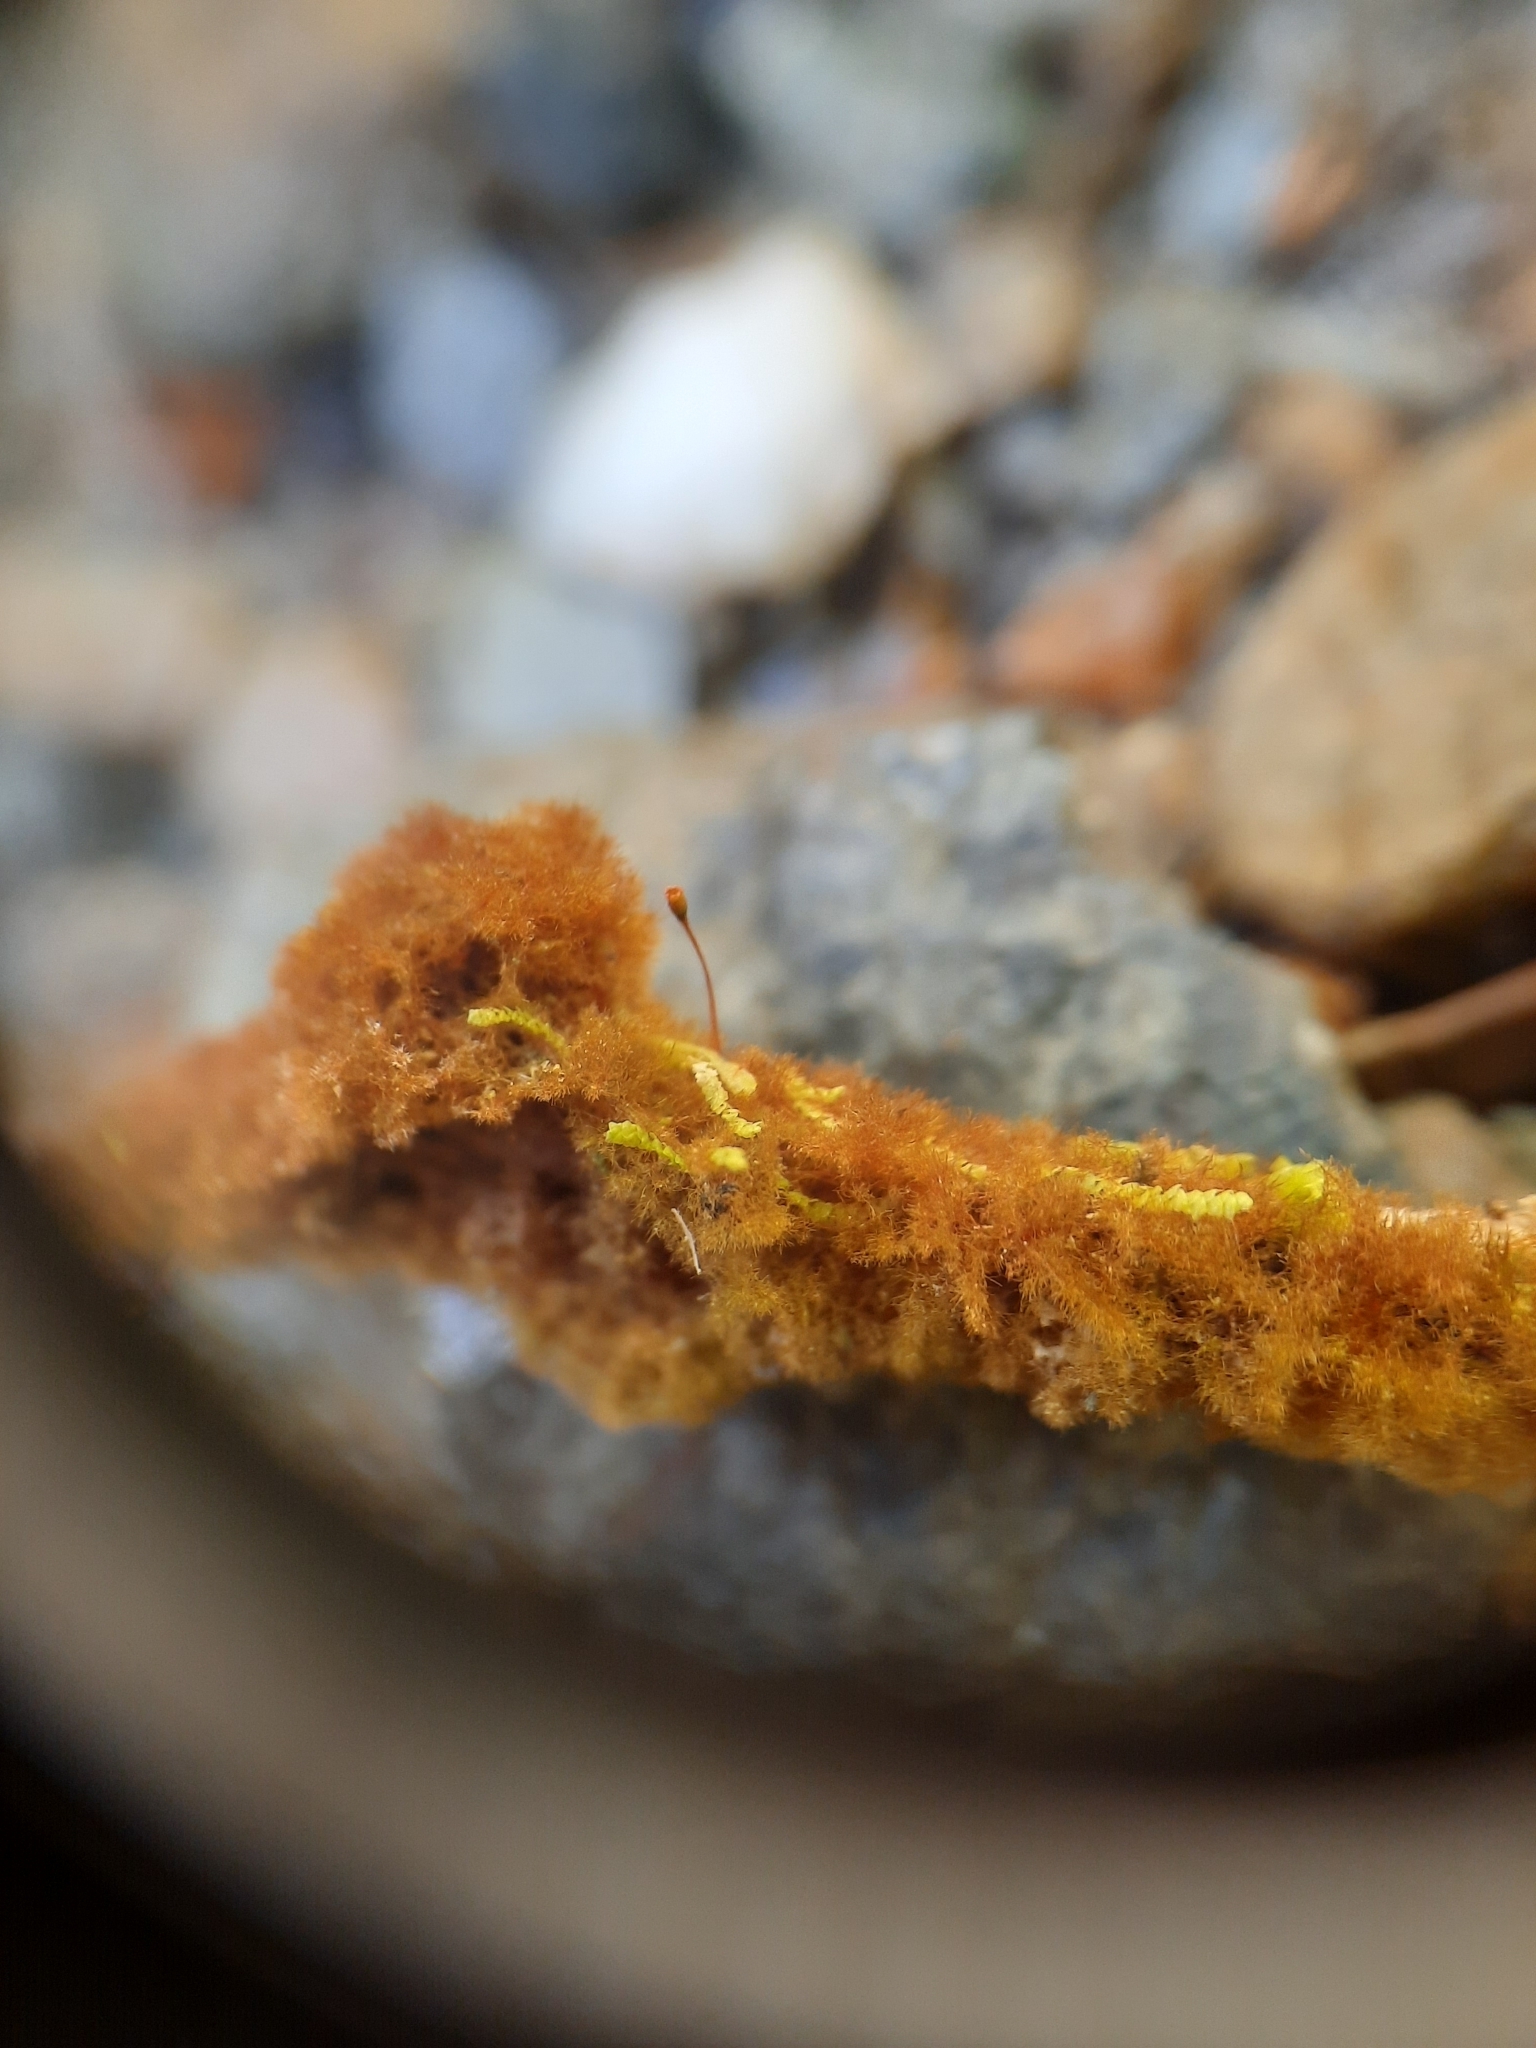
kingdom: Plantae
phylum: Bryophyta
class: Bryopsida
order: Hookeriales
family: Daltoniaceae
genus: Ephemeropsis
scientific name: Ephemeropsis trentepohlioides
